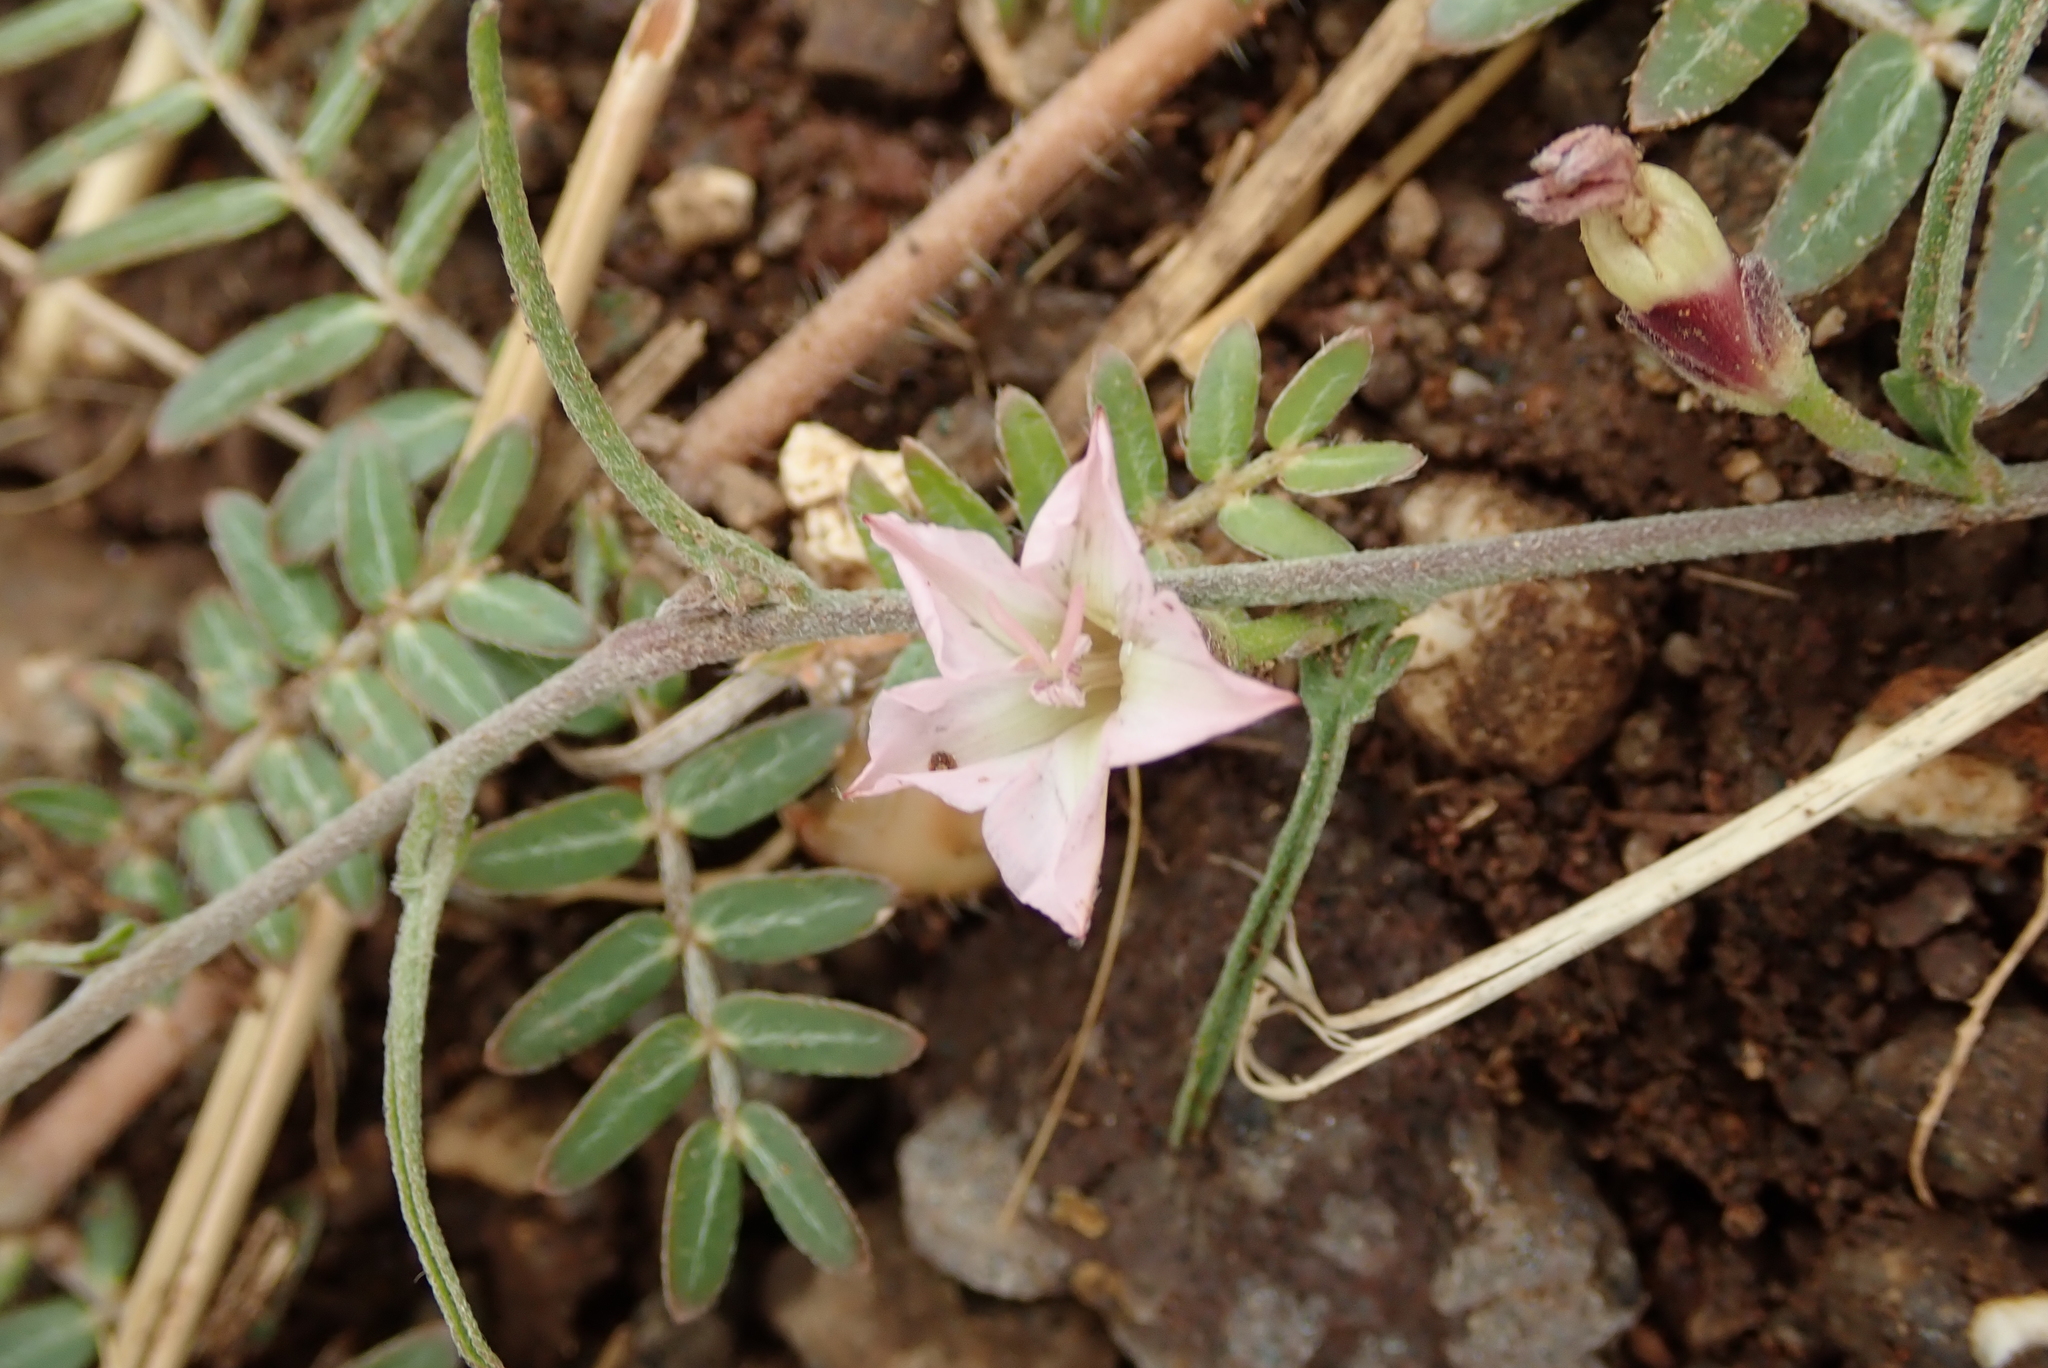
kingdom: Plantae
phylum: Tracheophyta
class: Magnoliopsida
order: Solanales
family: Convolvulaceae
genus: Convolvulus
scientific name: Convolvulus sagittatus
